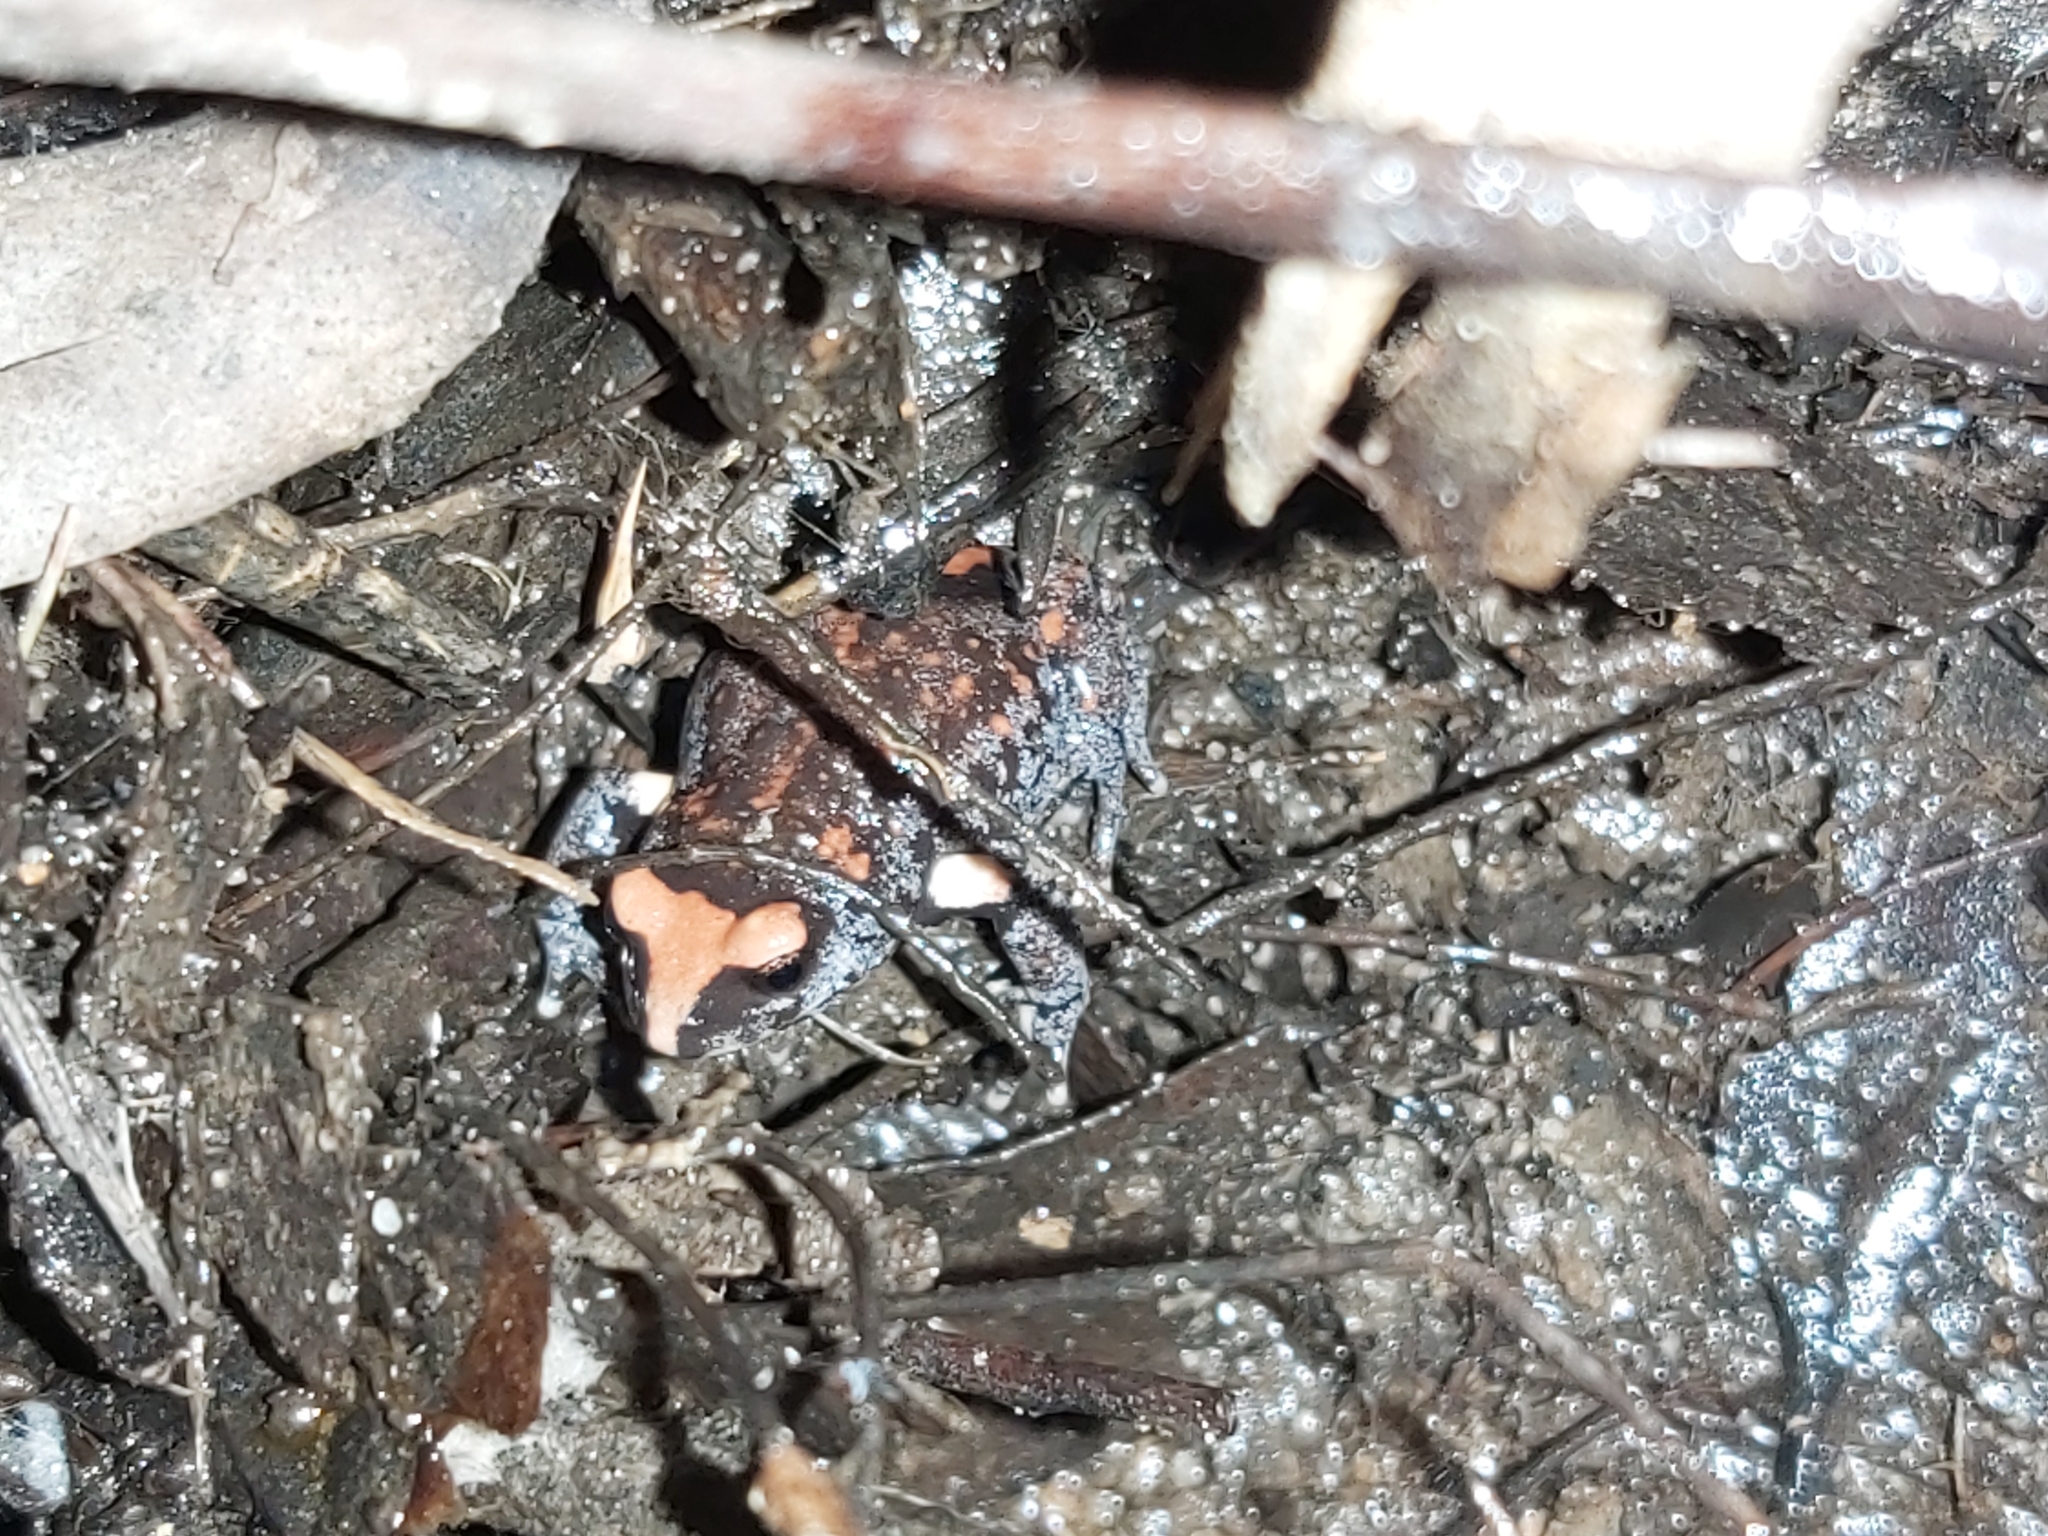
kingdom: Animalia
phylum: Chordata
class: Amphibia
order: Anura
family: Myobatrachidae
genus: Pseudophryne
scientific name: Pseudophryne australis
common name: Red-crowned toadlet
